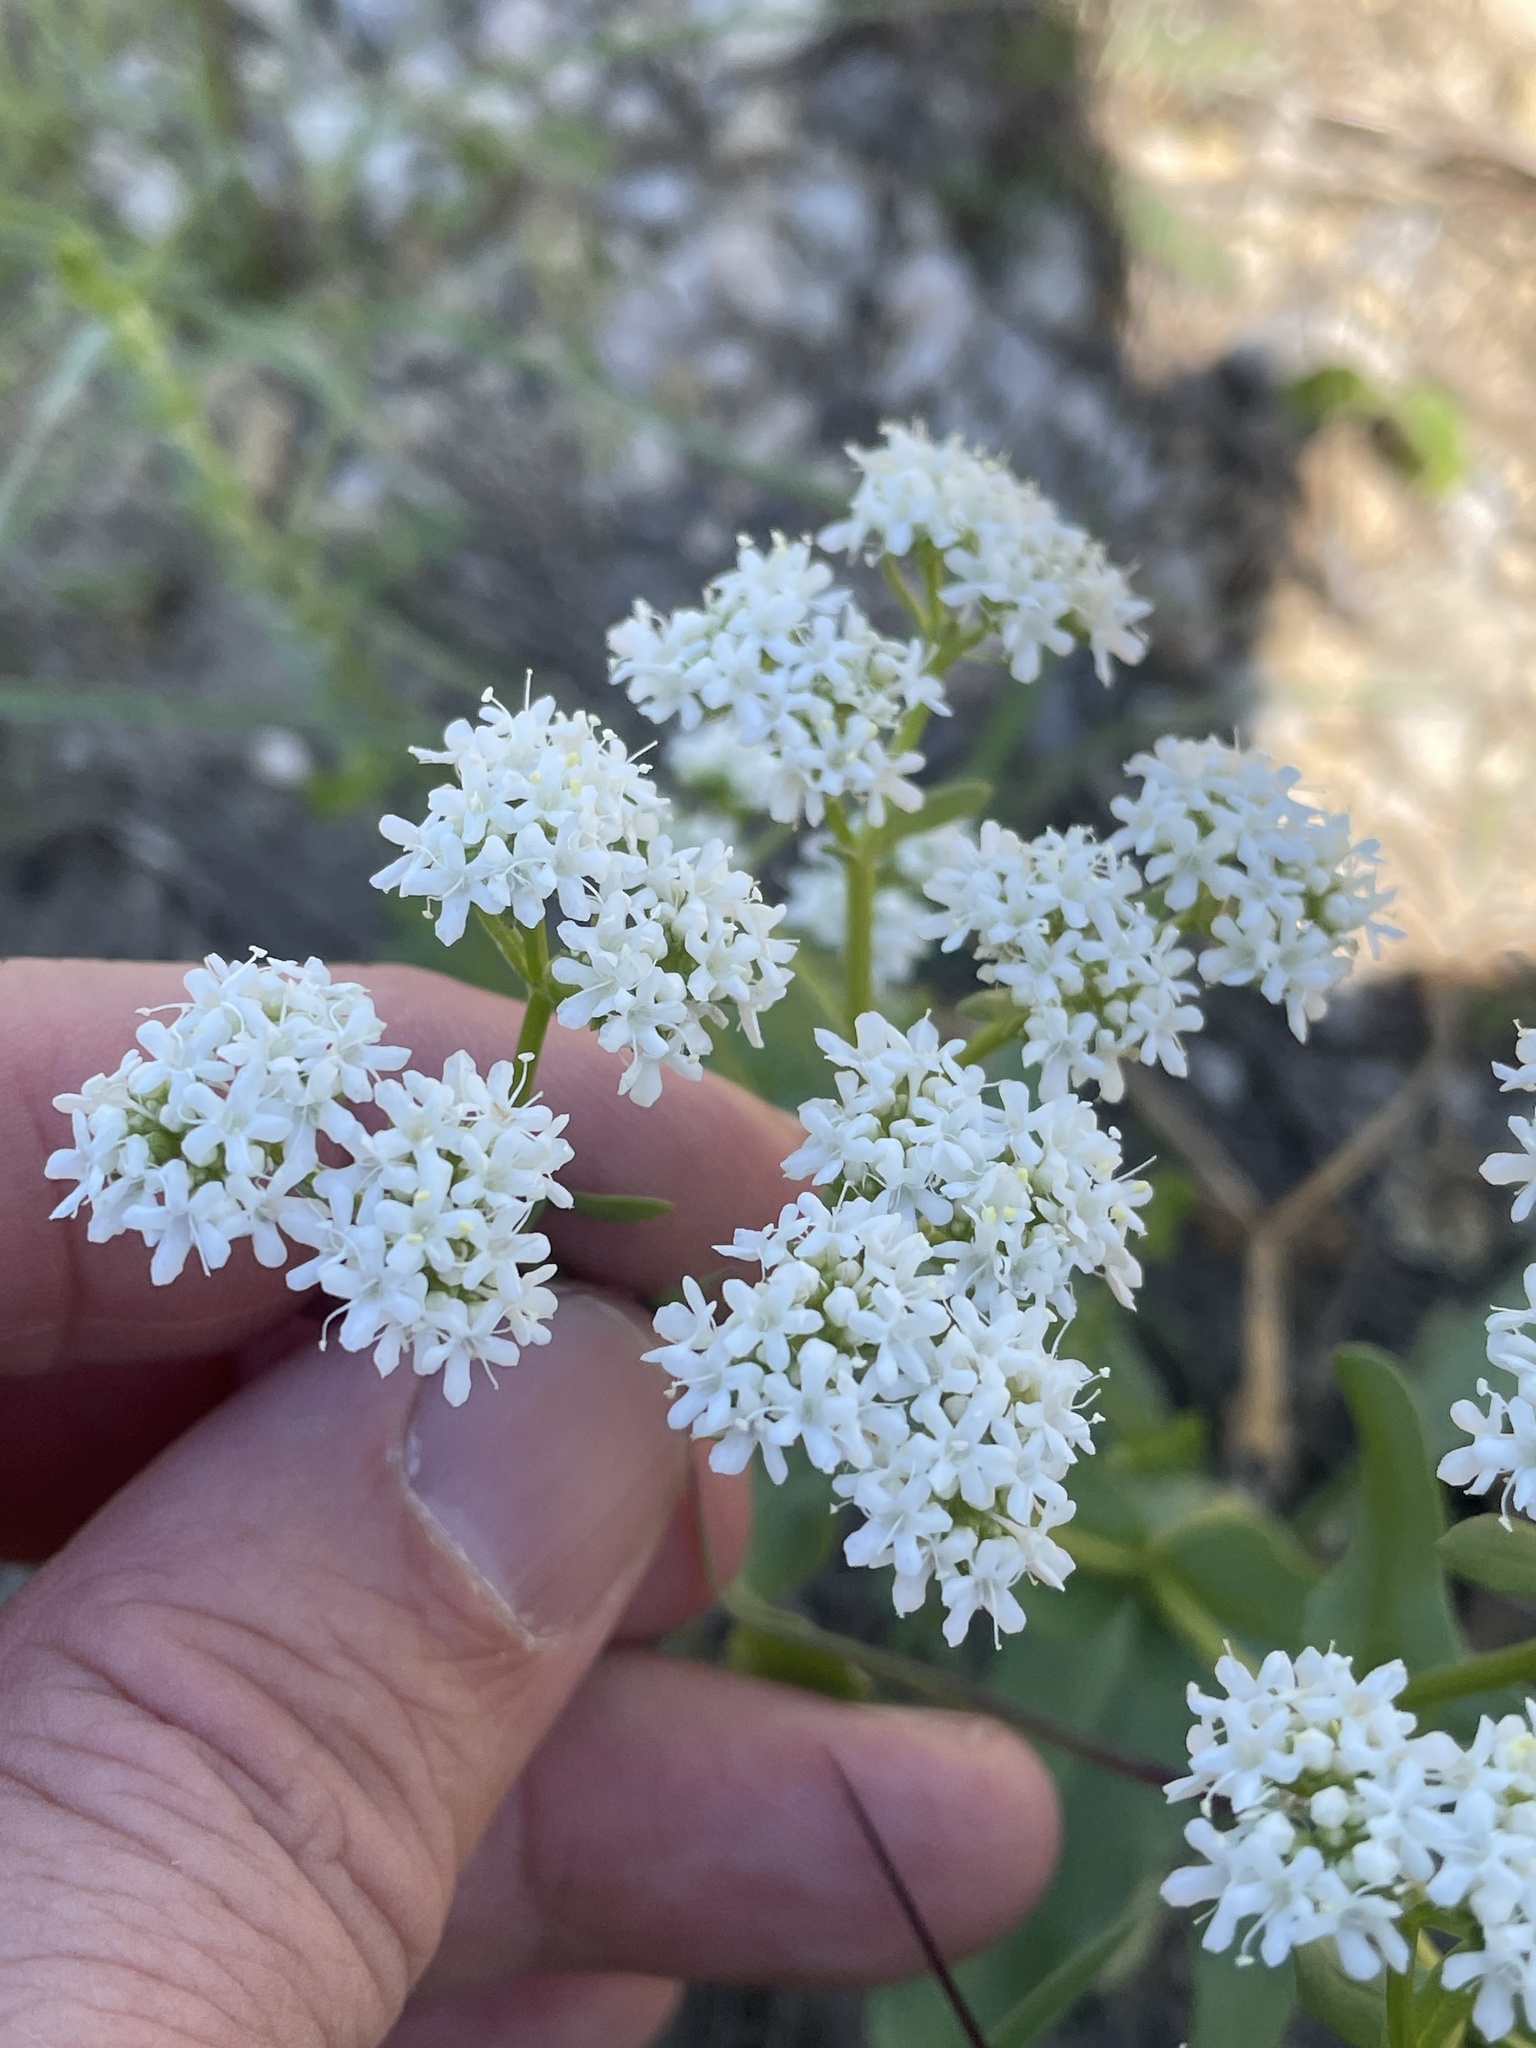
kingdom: Plantae
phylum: Tracheophyta
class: Magnoliopsida
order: Dipsacales
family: Caprifoliaceae
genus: Valerianella
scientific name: Valerianella amarella
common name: Hariy cornsalad
